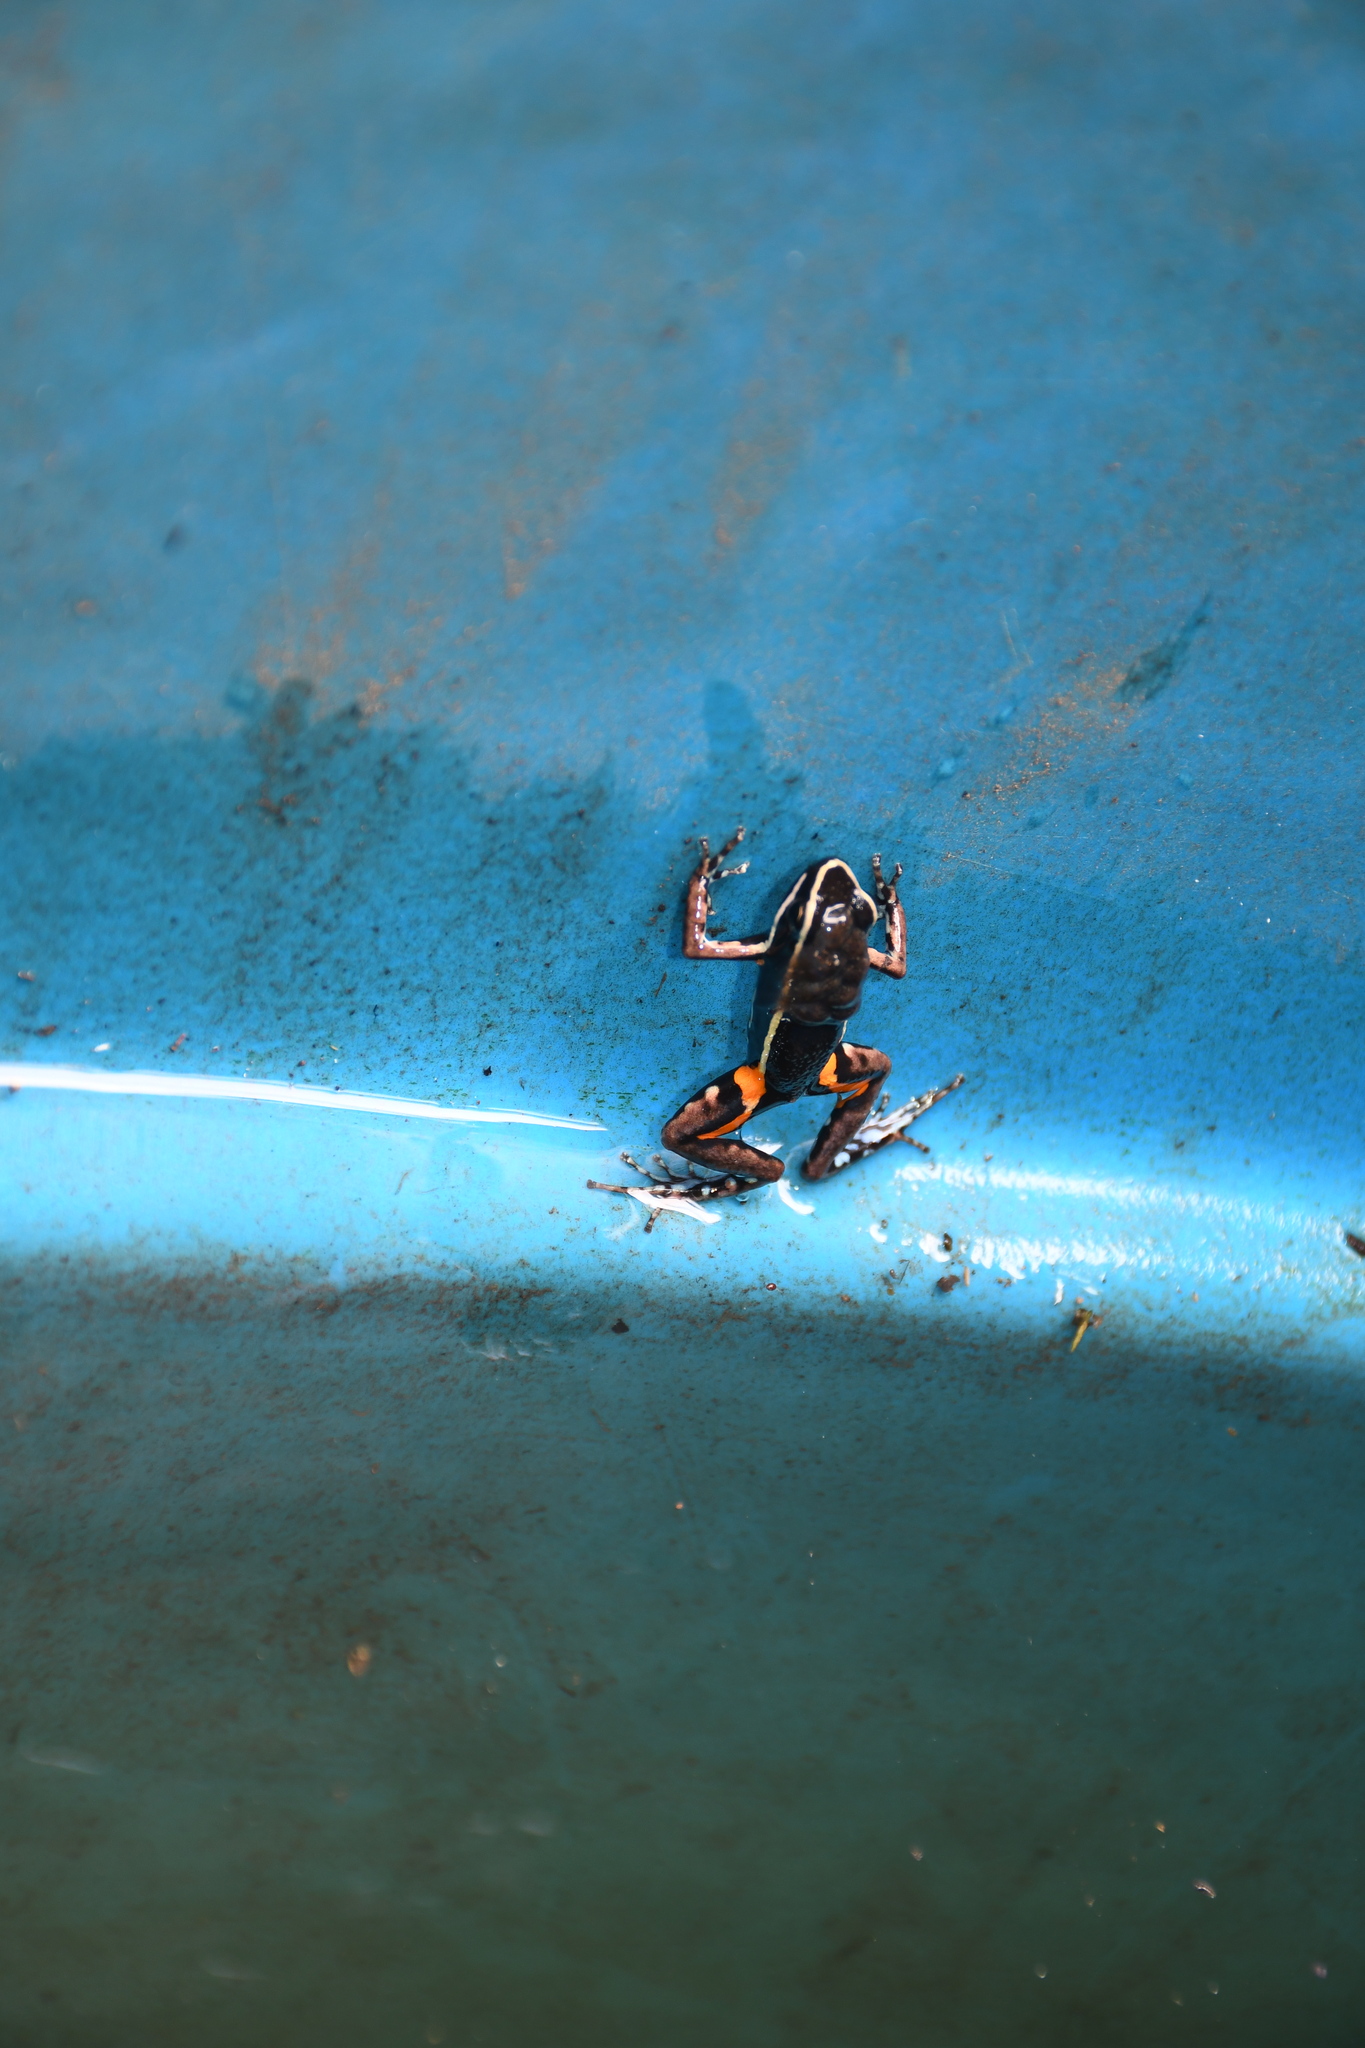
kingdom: Animalia
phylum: Chordata
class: Amphibia
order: Anura
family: Dendrobatidae
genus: Ameerega
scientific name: Ameerega picta
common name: Spot-legged poison frog
